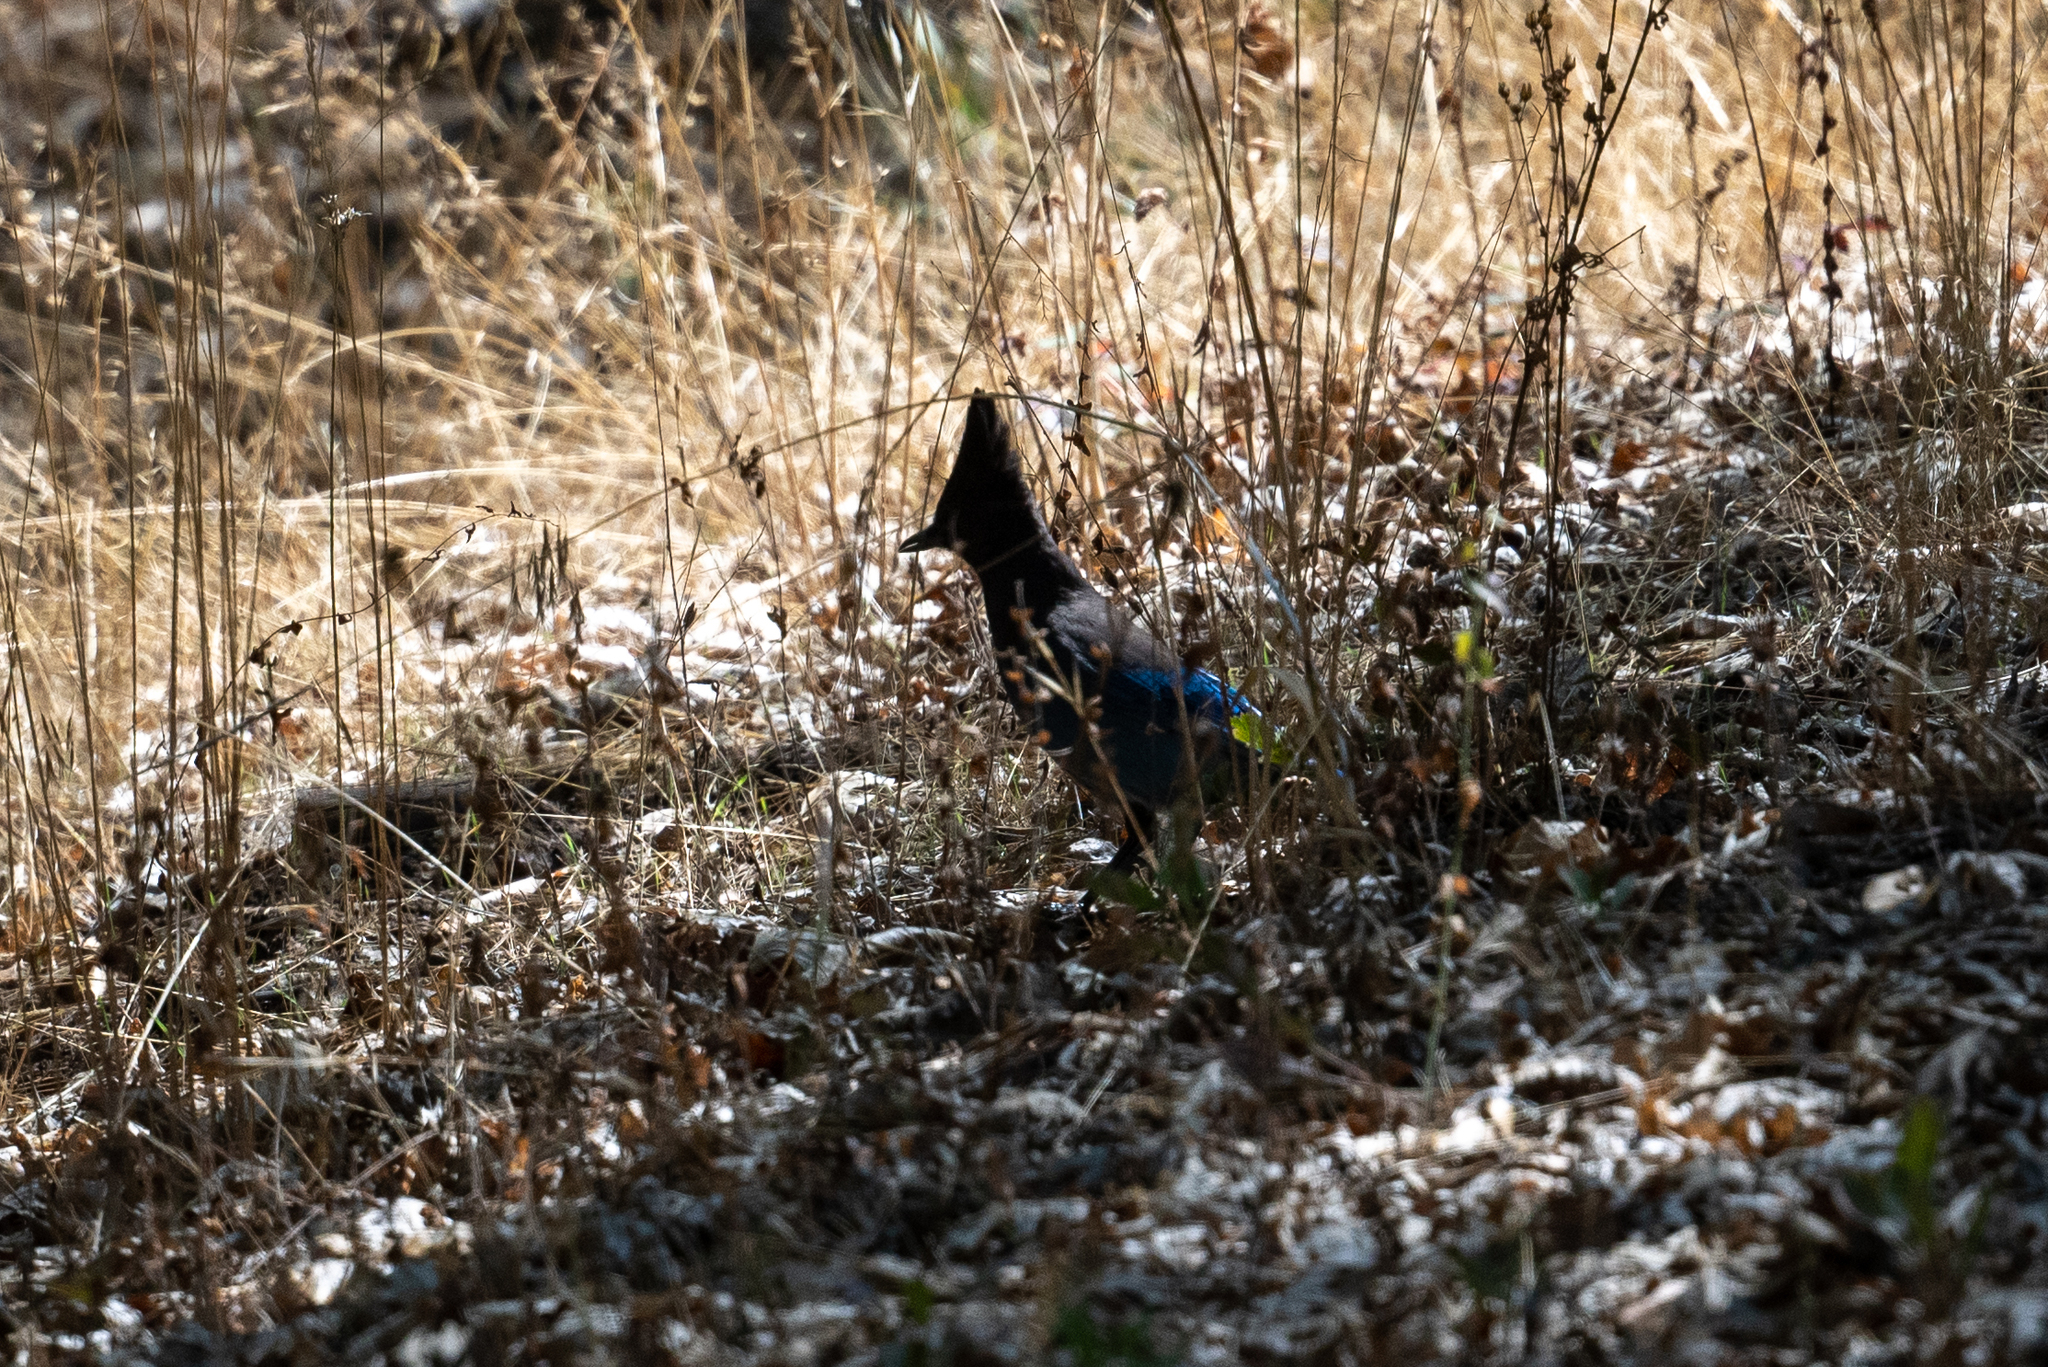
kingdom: Animalia
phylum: Chordata
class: Aves
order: Passeriformes
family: Corvidae
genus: Cyanocitta
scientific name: Cyanocitta stelleri
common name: Steller's jay
